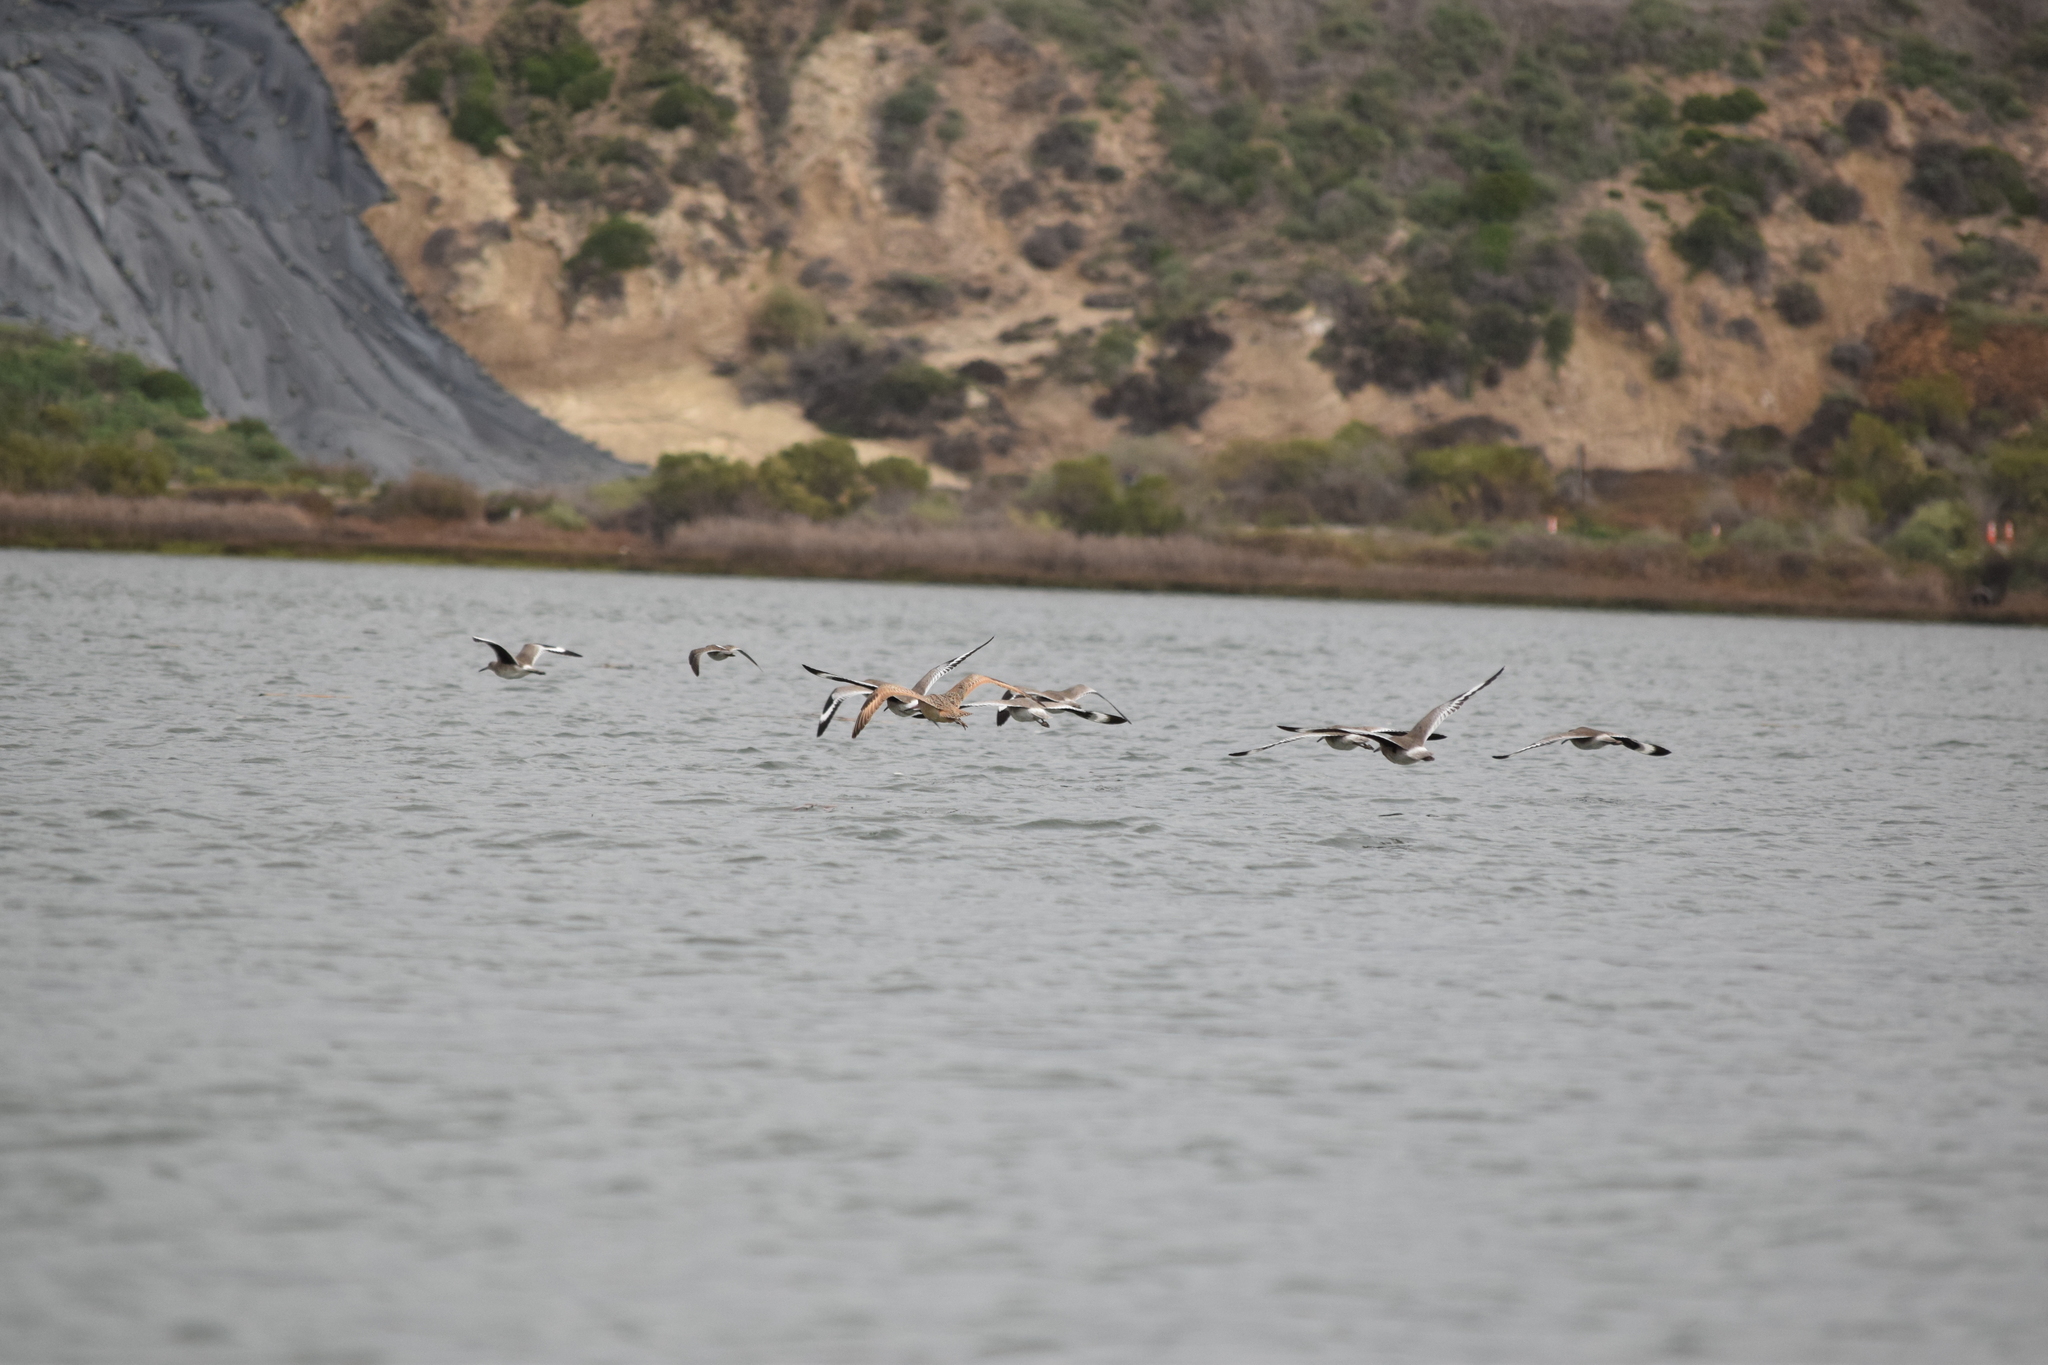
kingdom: Animalia
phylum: Chordata
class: Aves
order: Charadriiformes
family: Scolopacidae
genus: Tringa
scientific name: Tringa semipalmata
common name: Willet
